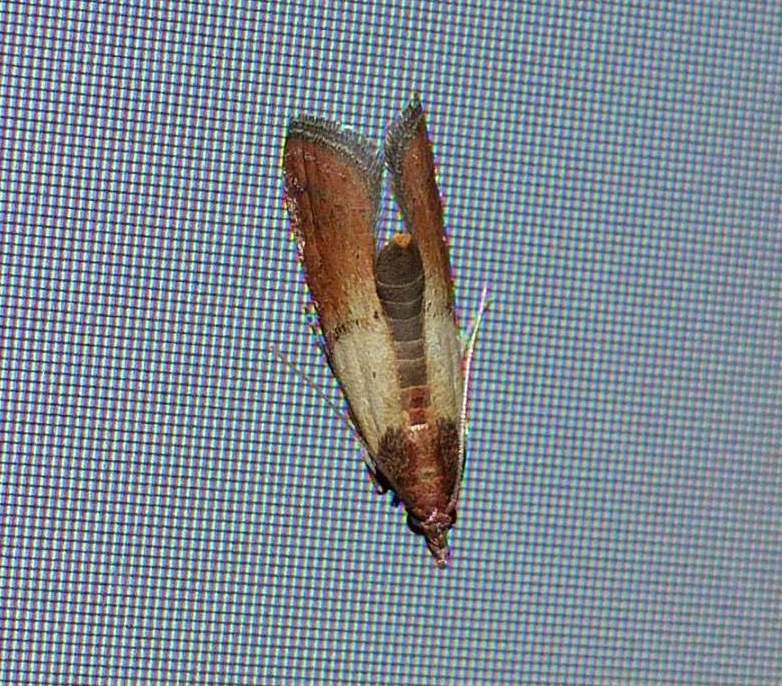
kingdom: Animalia
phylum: Arthropoda
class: Insecta
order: Lepidoptera
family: Pyralidae
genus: Plodia
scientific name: Plodia interpunctella
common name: Indian meal moth
